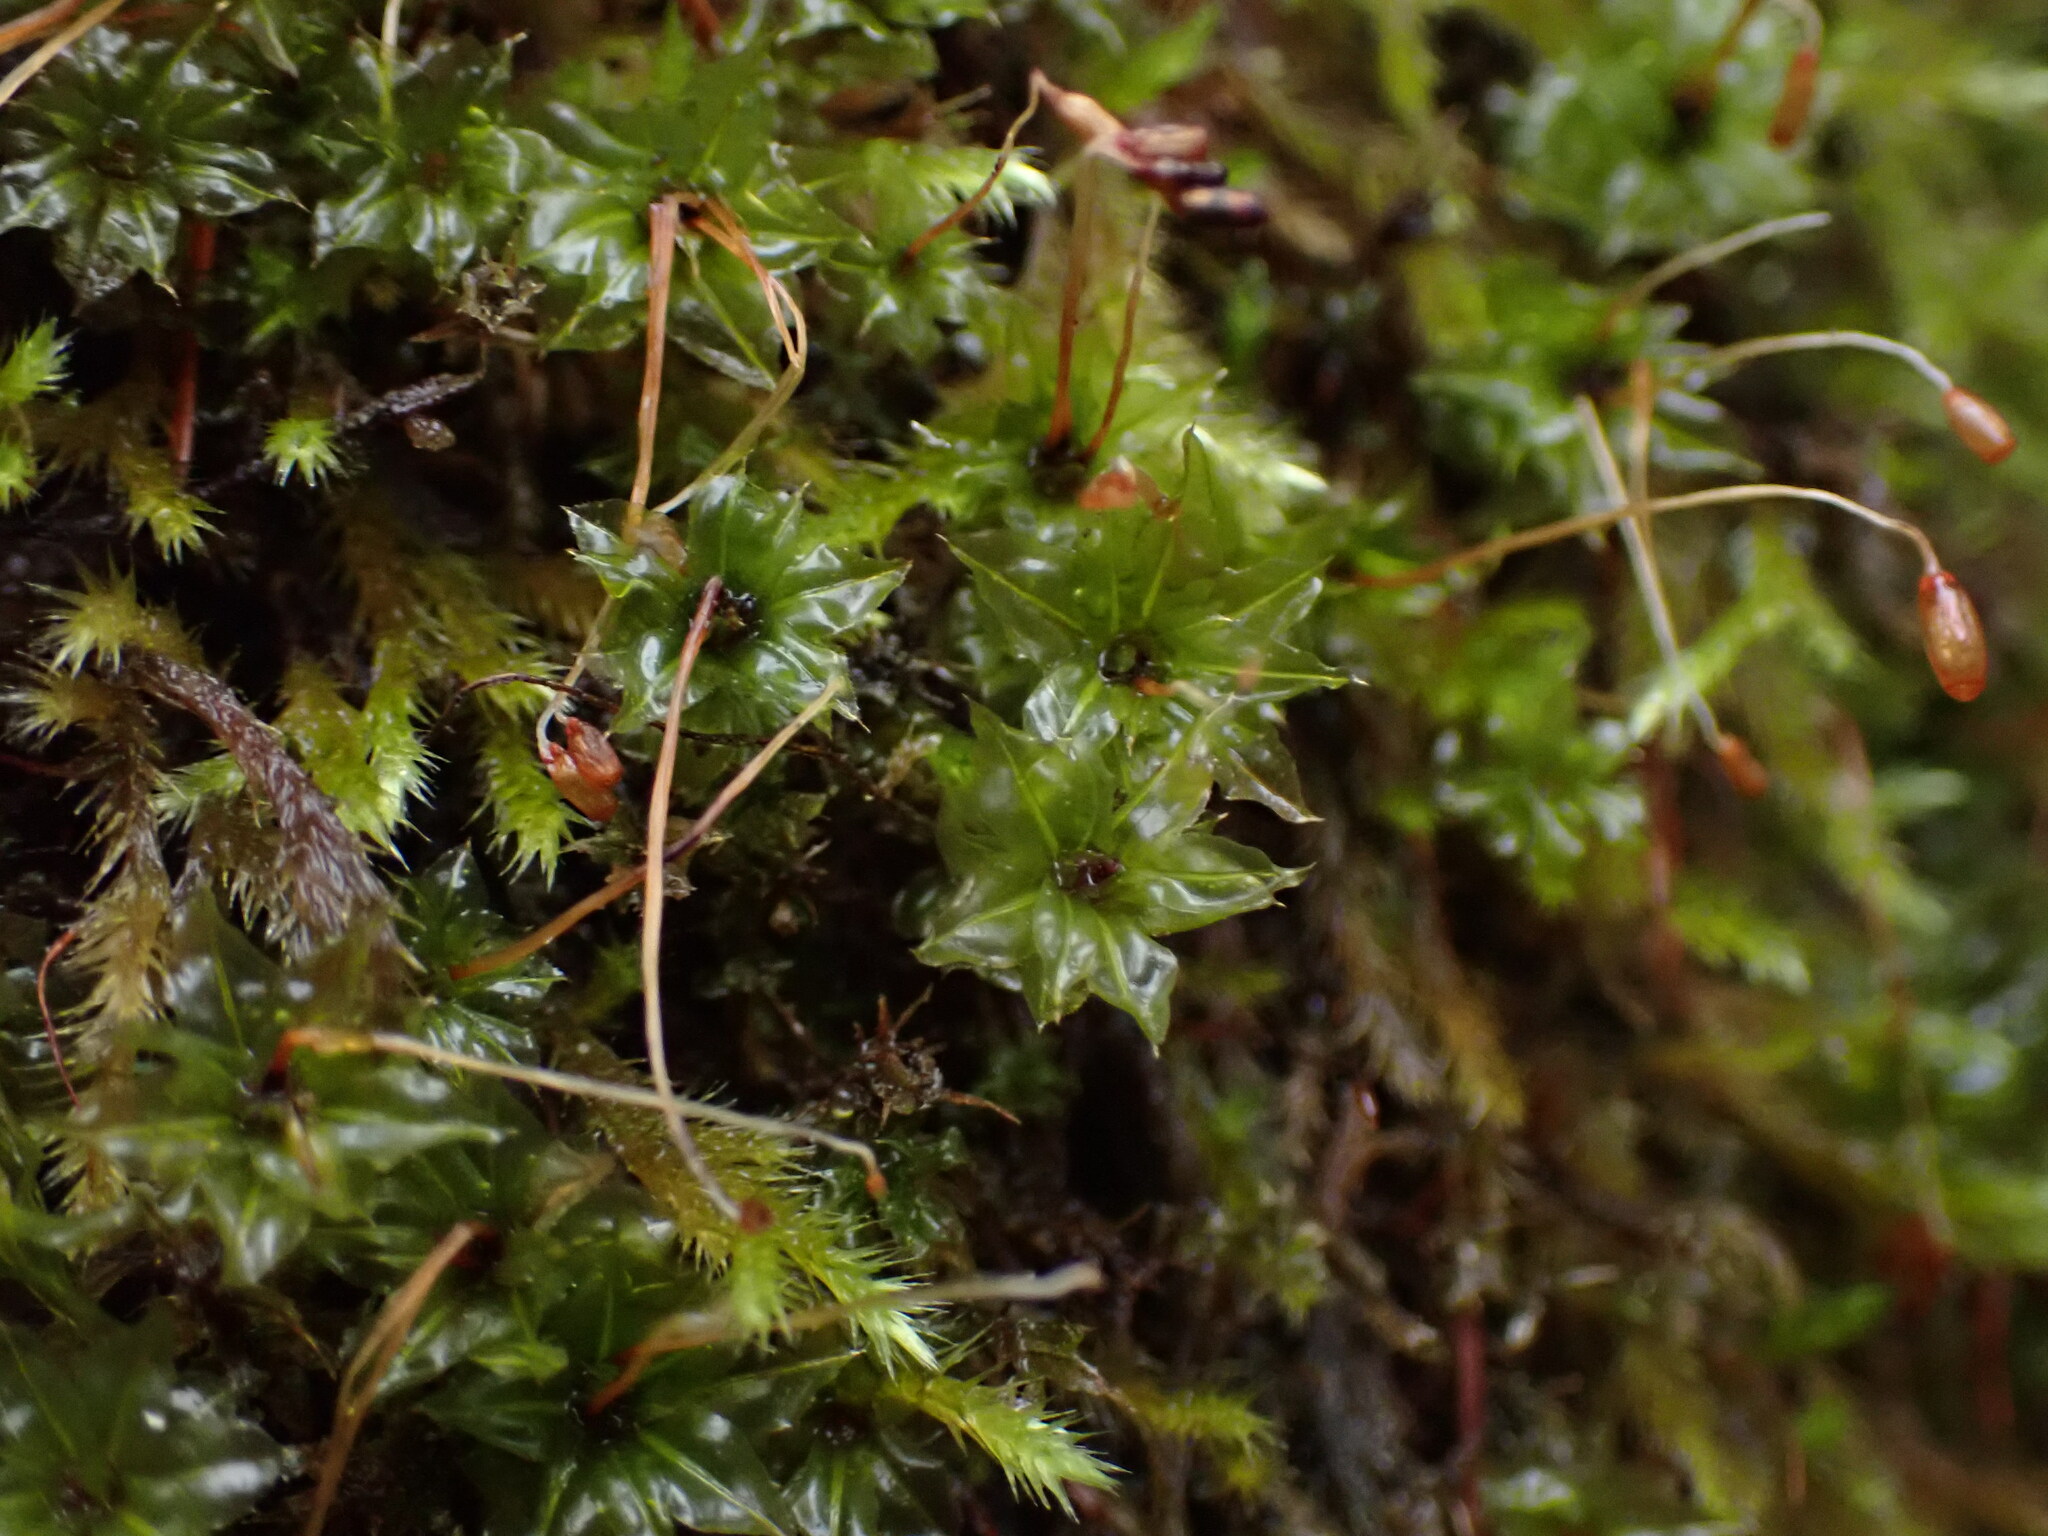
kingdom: Plantae
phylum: Bryophyta
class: Bryopsida
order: Bryales
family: Mniaceae
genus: Plagiomnium
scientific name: Plagiomnium venustum
